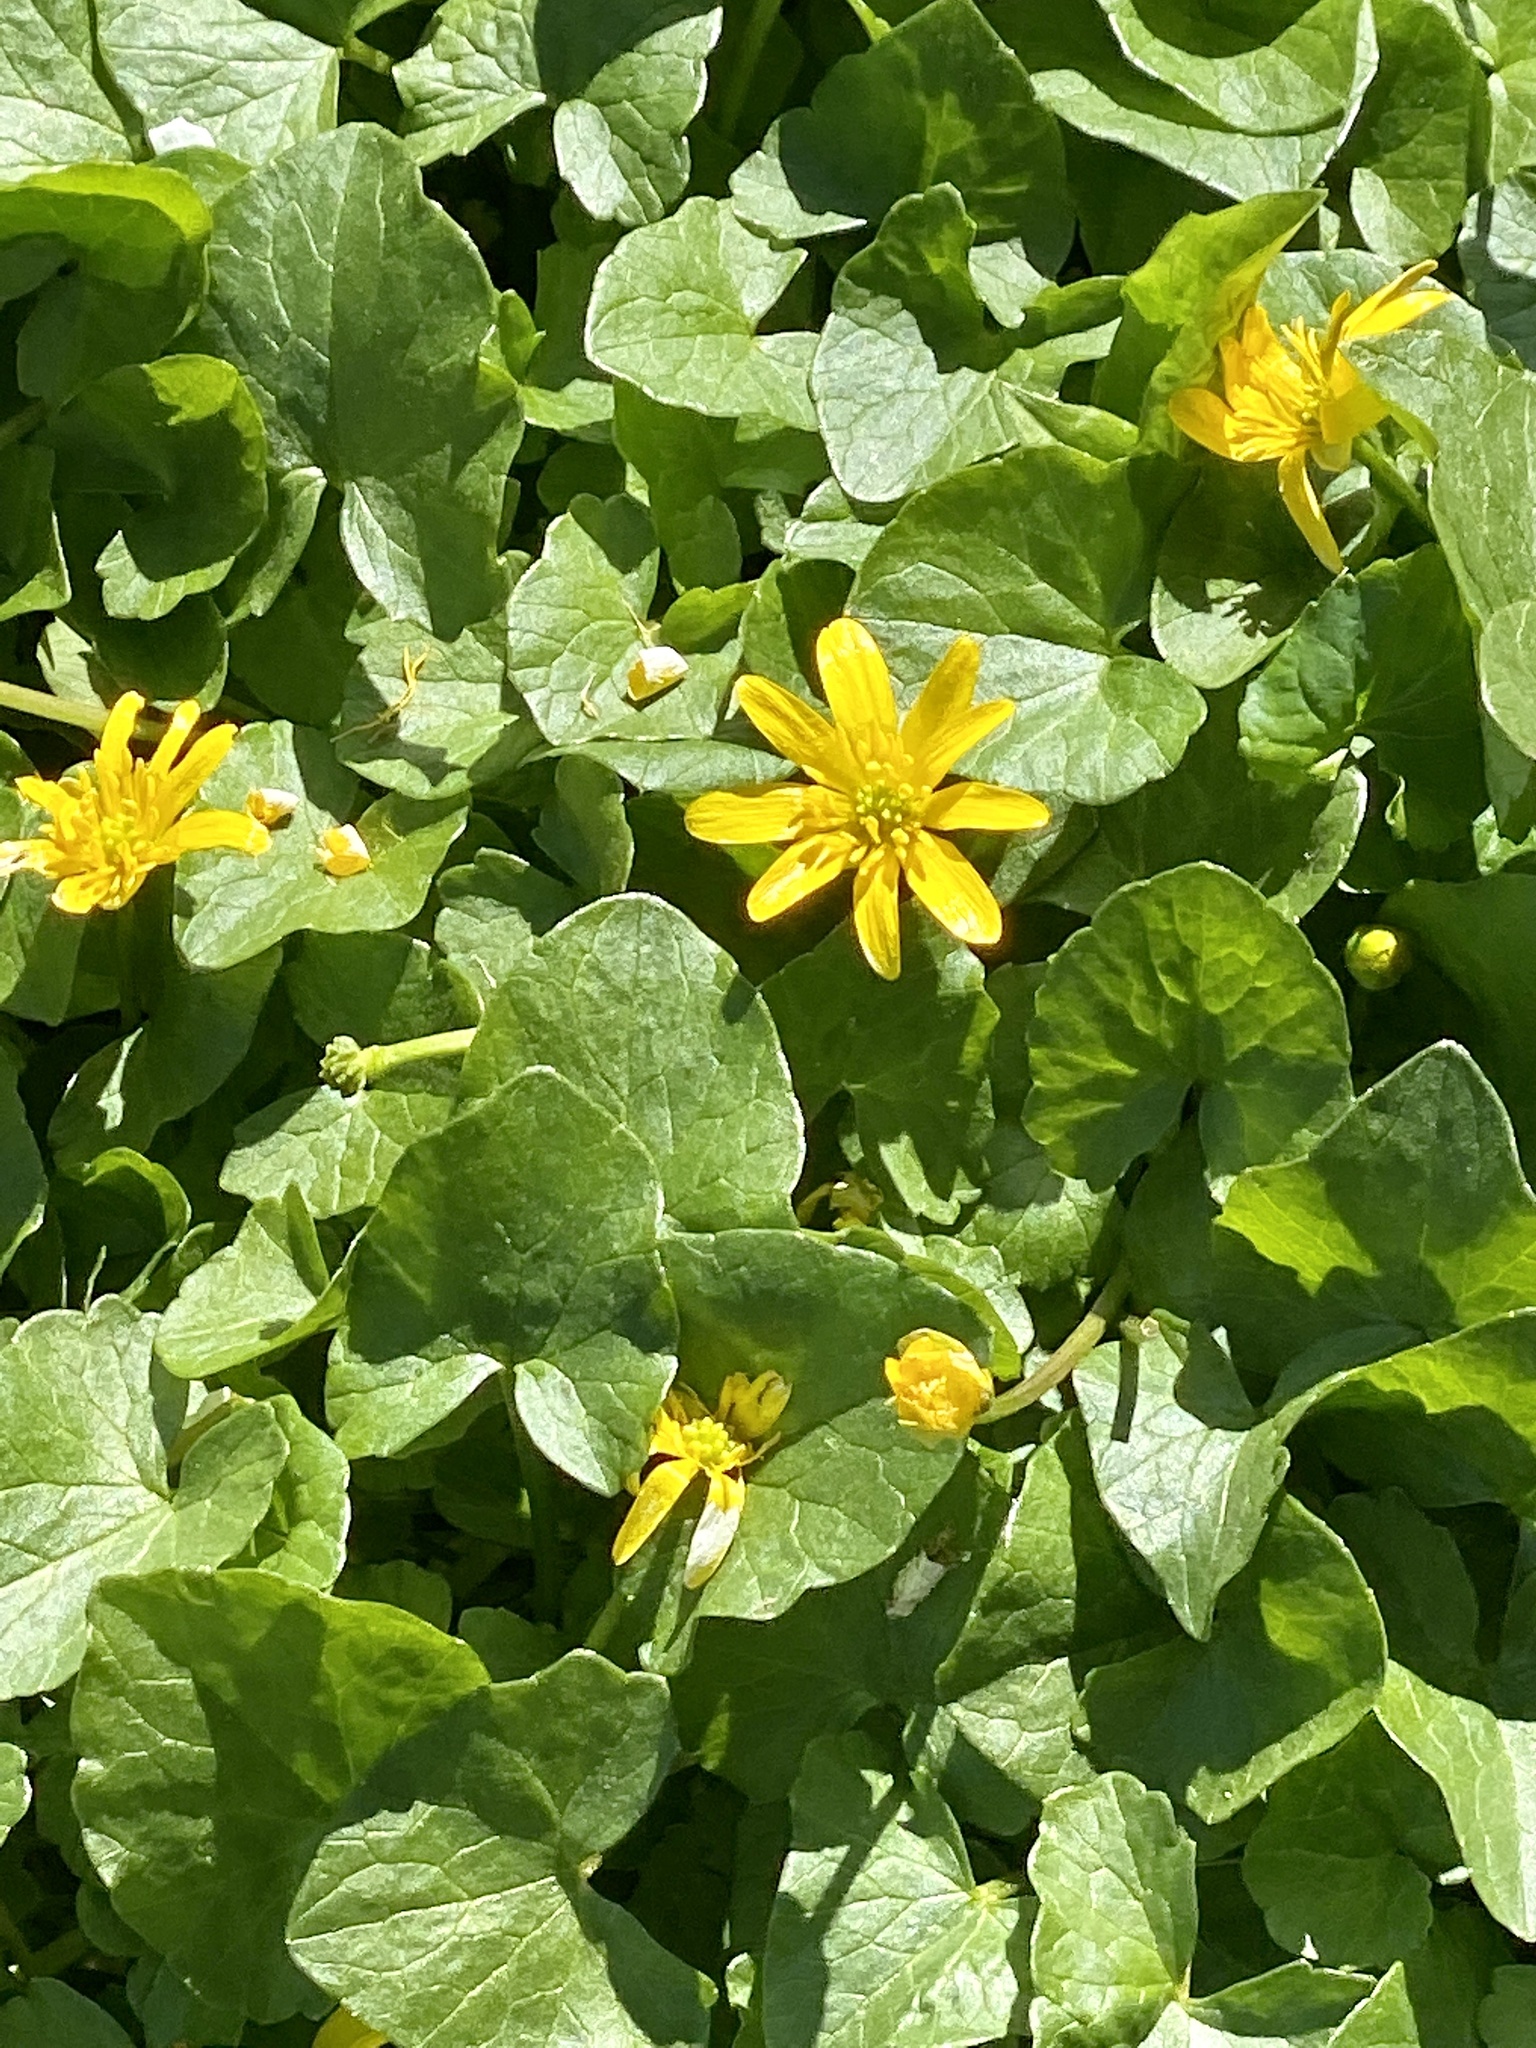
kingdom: Plantae
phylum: Tracheophyta
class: Magnoliopsida
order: Ranunculales
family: Ranunculaceae
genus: Ficaria
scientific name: Ficaria verna
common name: Lesser celandine
